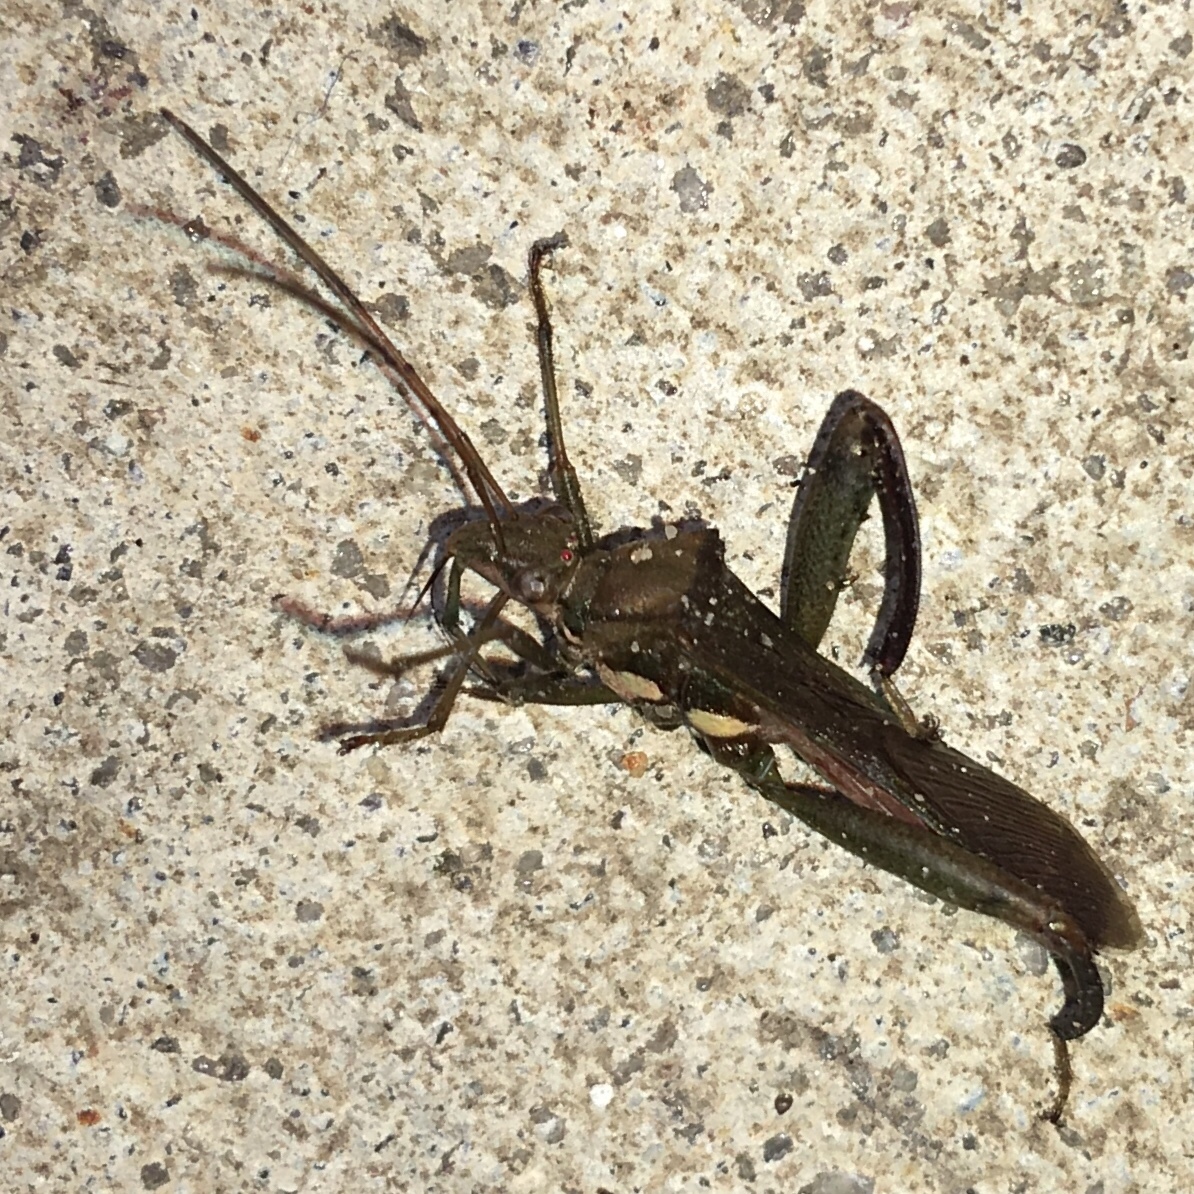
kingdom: Animalia
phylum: Arthropoda
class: Insecta
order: Hemiptera
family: Alydidae
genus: Hyalymenus
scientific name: Hyalymenus tarsatus
